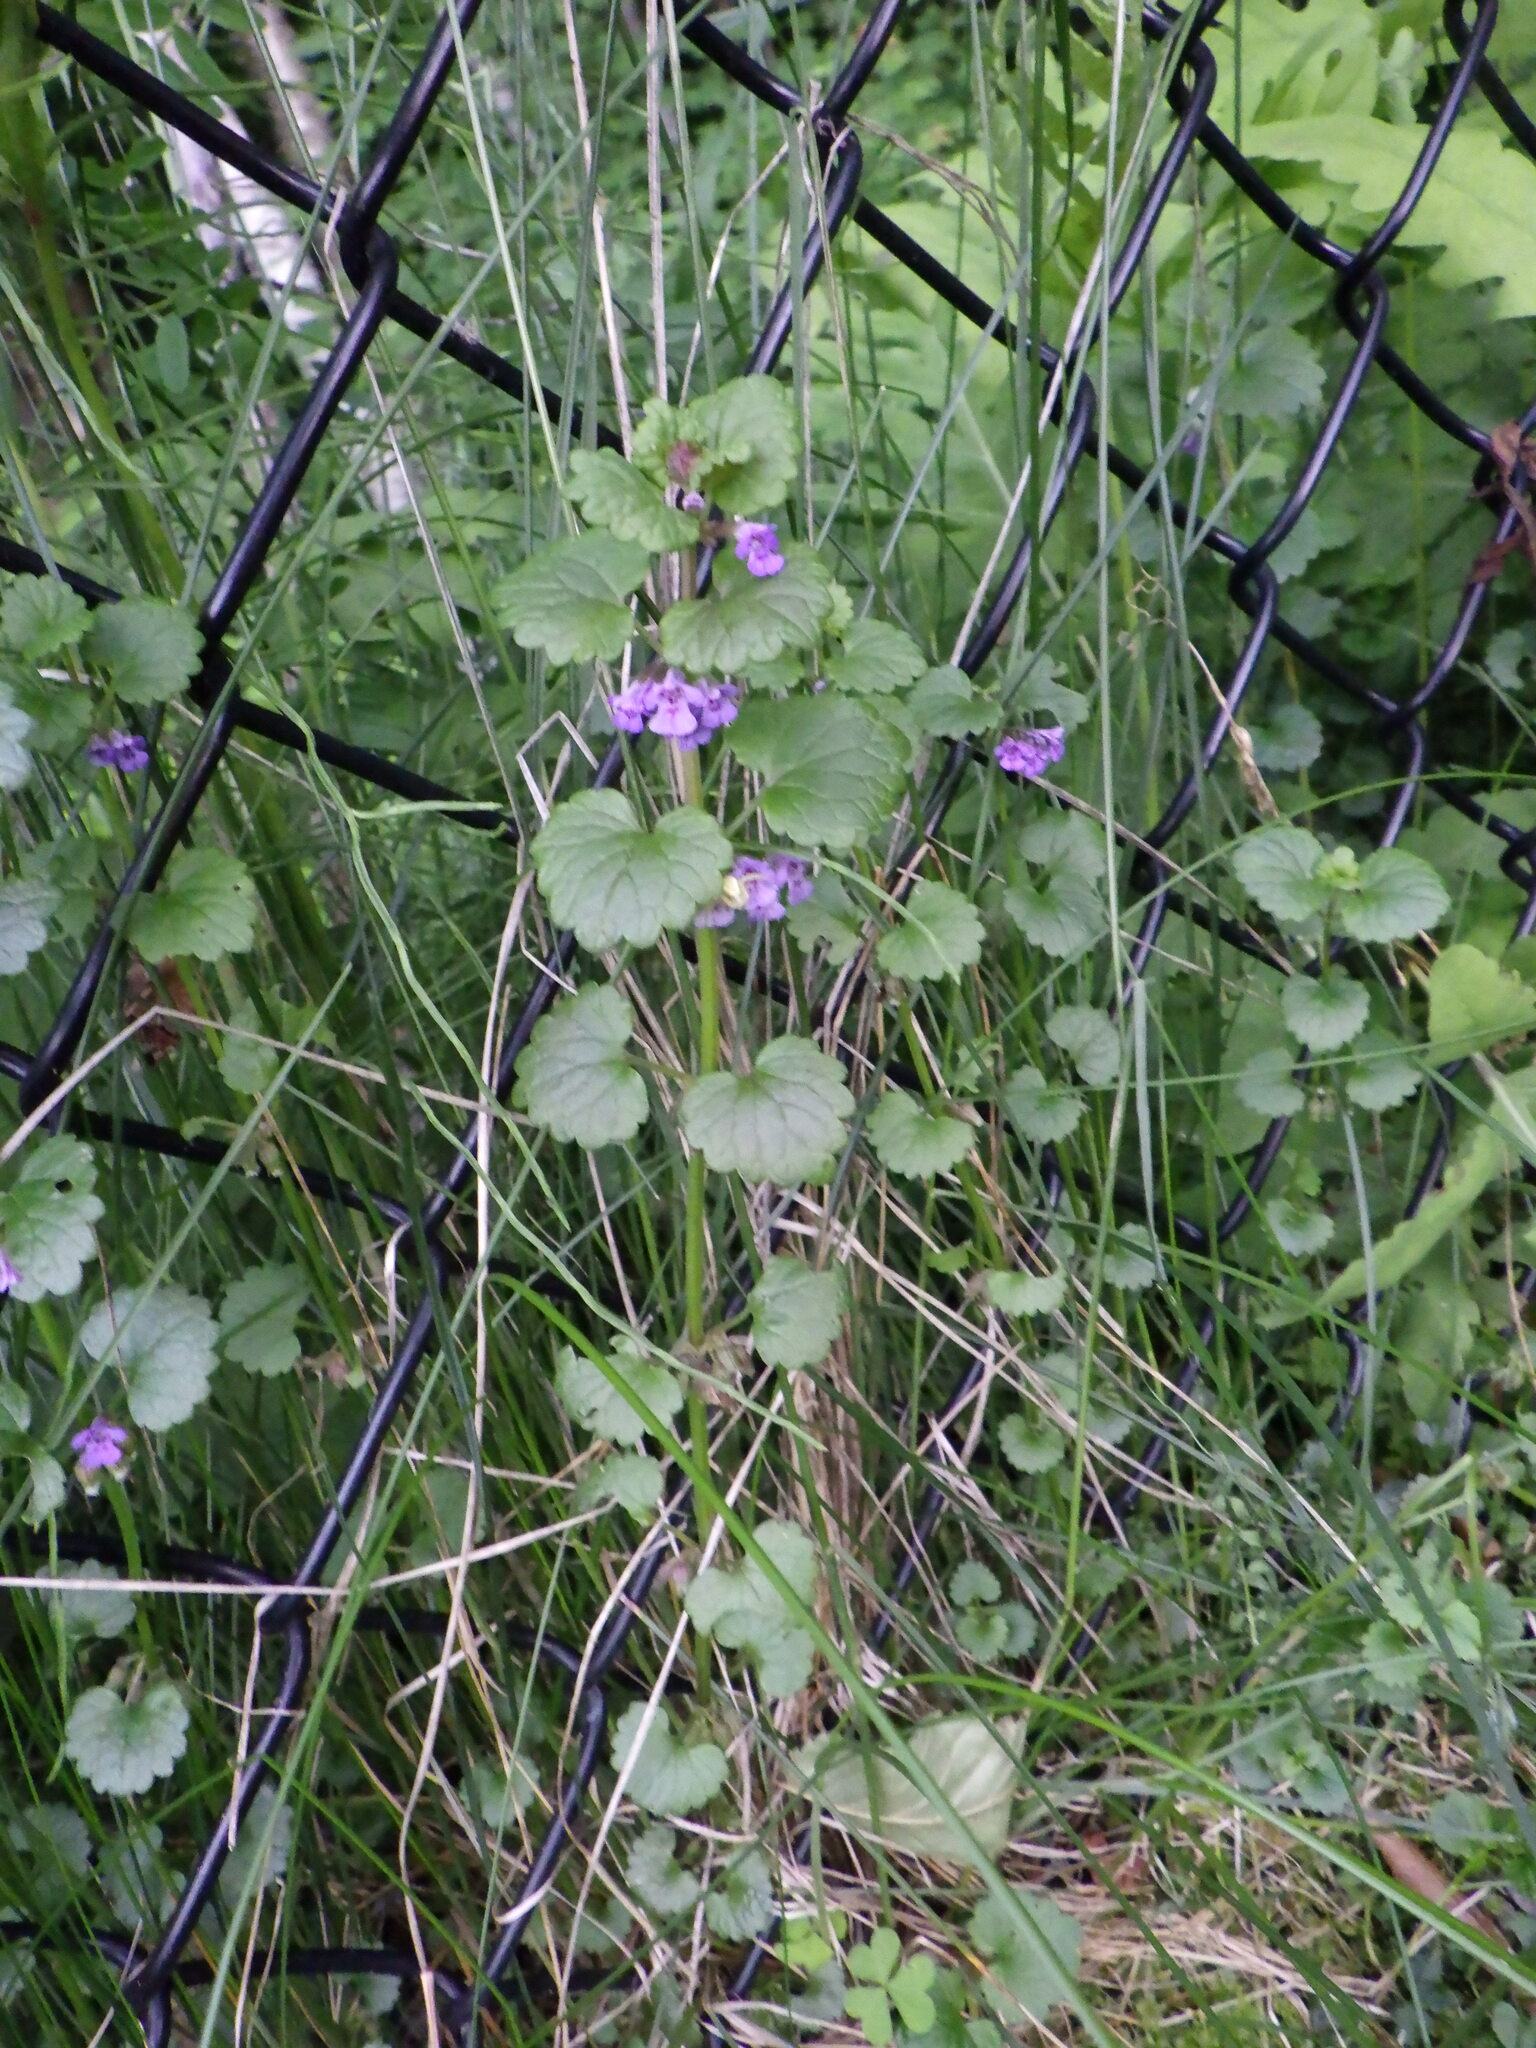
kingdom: Plantae
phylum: Tracheophyta
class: Magnoliopsida
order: Lamiales
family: Lamiaceae
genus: Glechoma
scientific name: Glechoma hederacea
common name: Ground ivy
